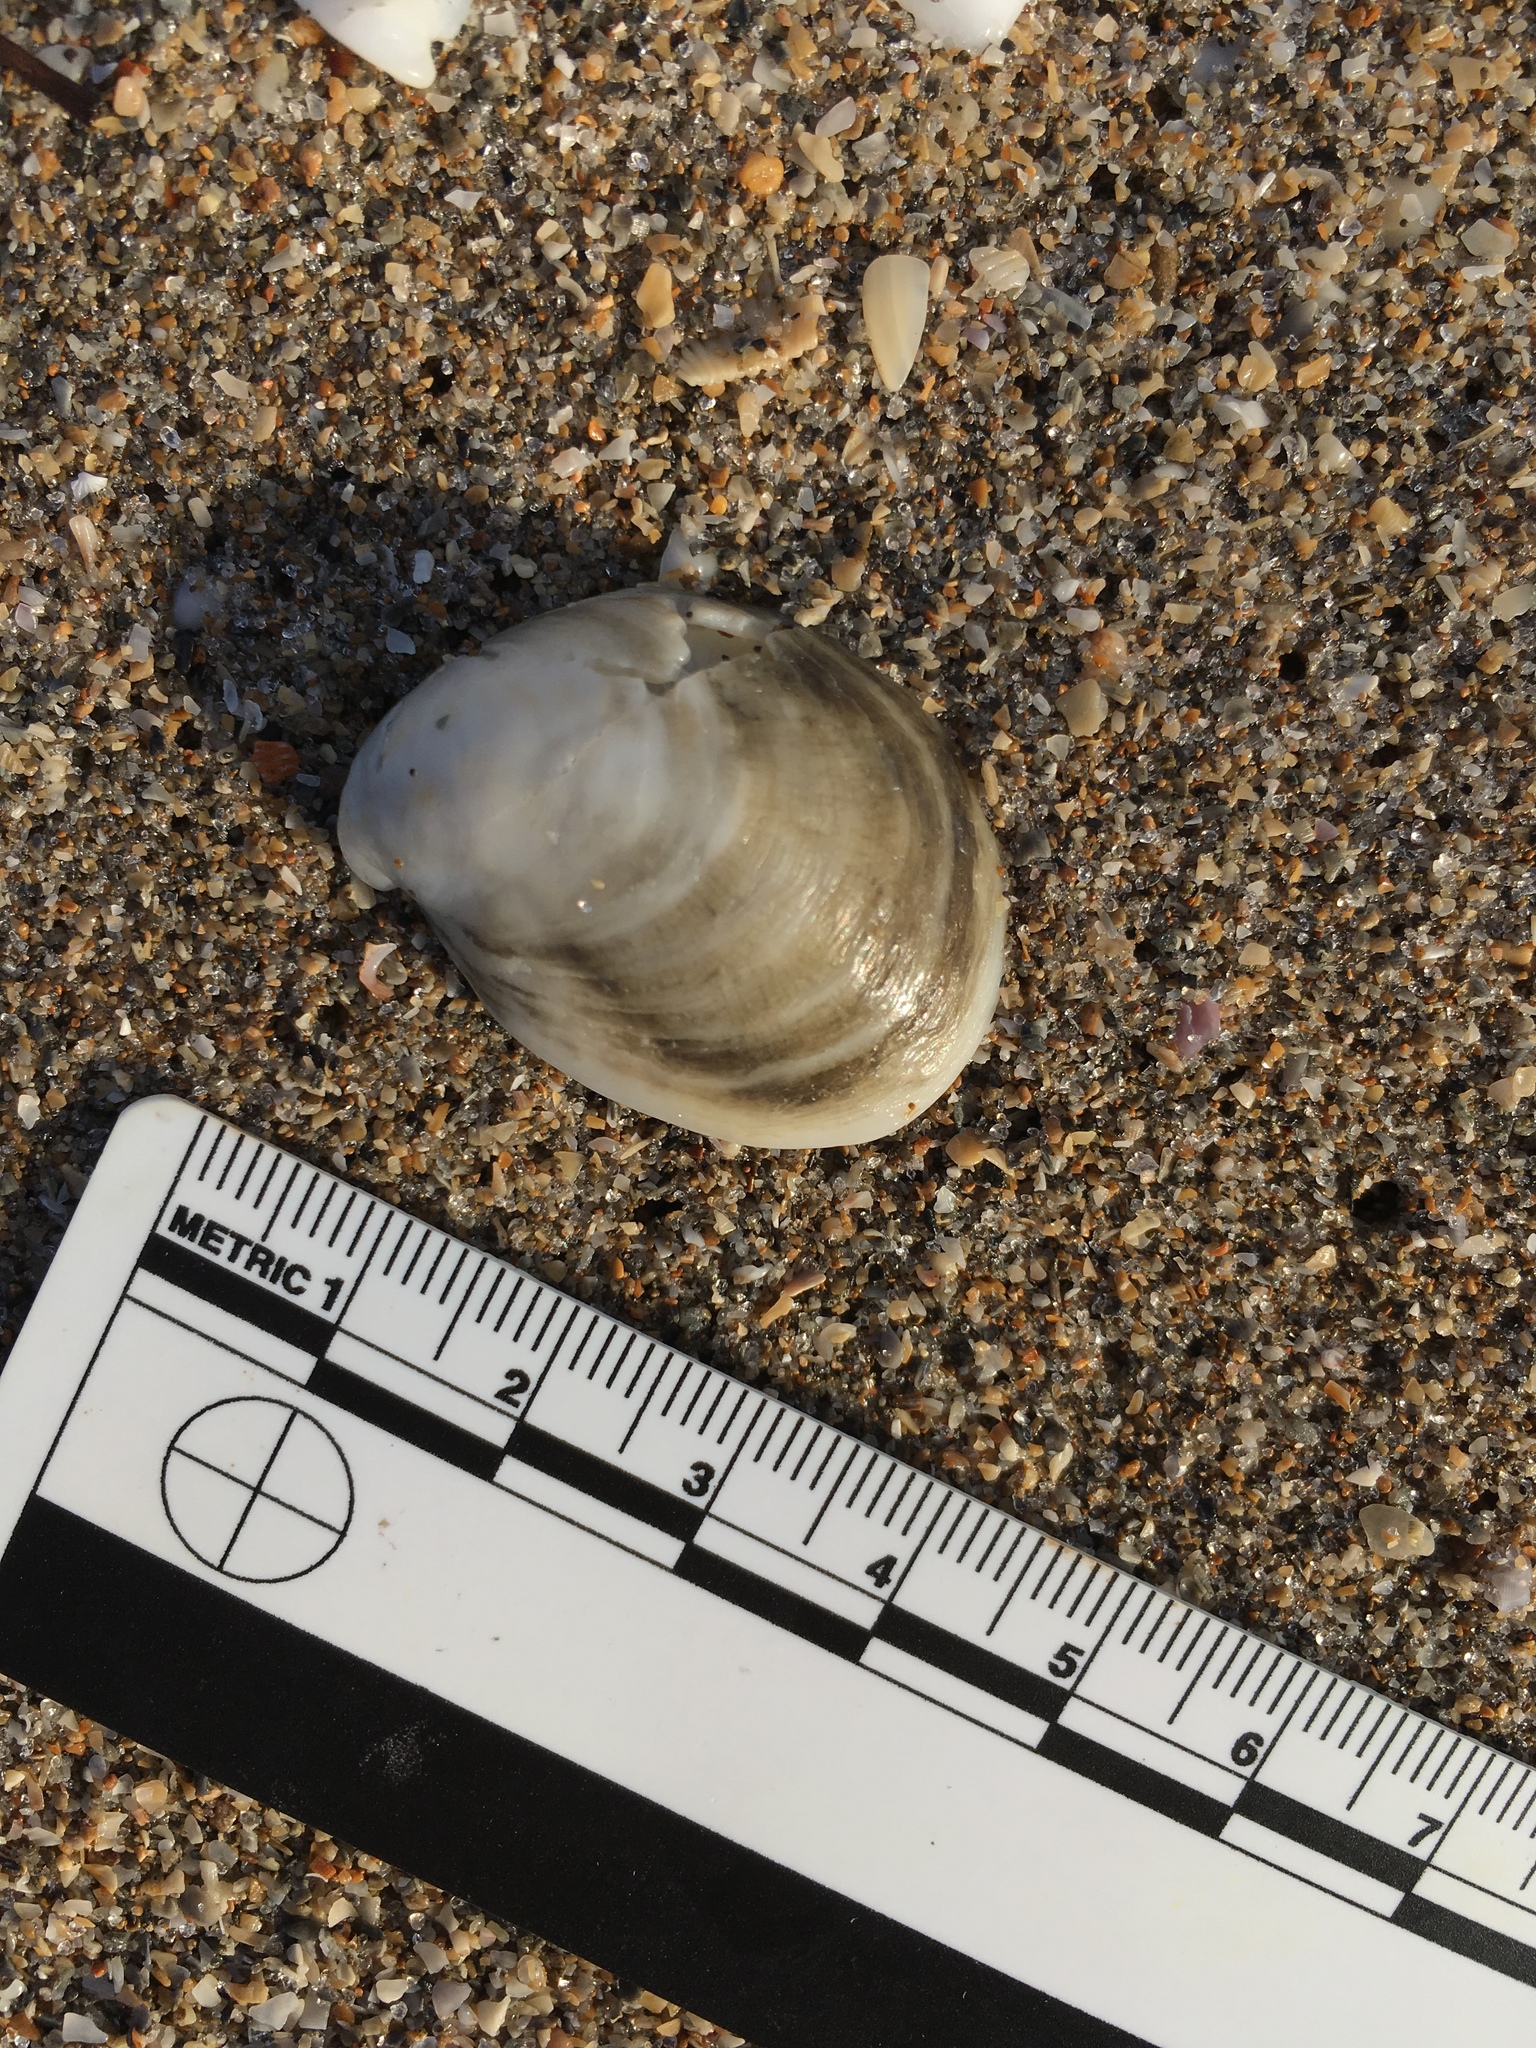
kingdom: Animalia
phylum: Mollusca
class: Gastropoda
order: Littorinimorpha
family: Calyptraeidae
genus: Crepidula
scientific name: Crepidula fornicata
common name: Slipper limpet
